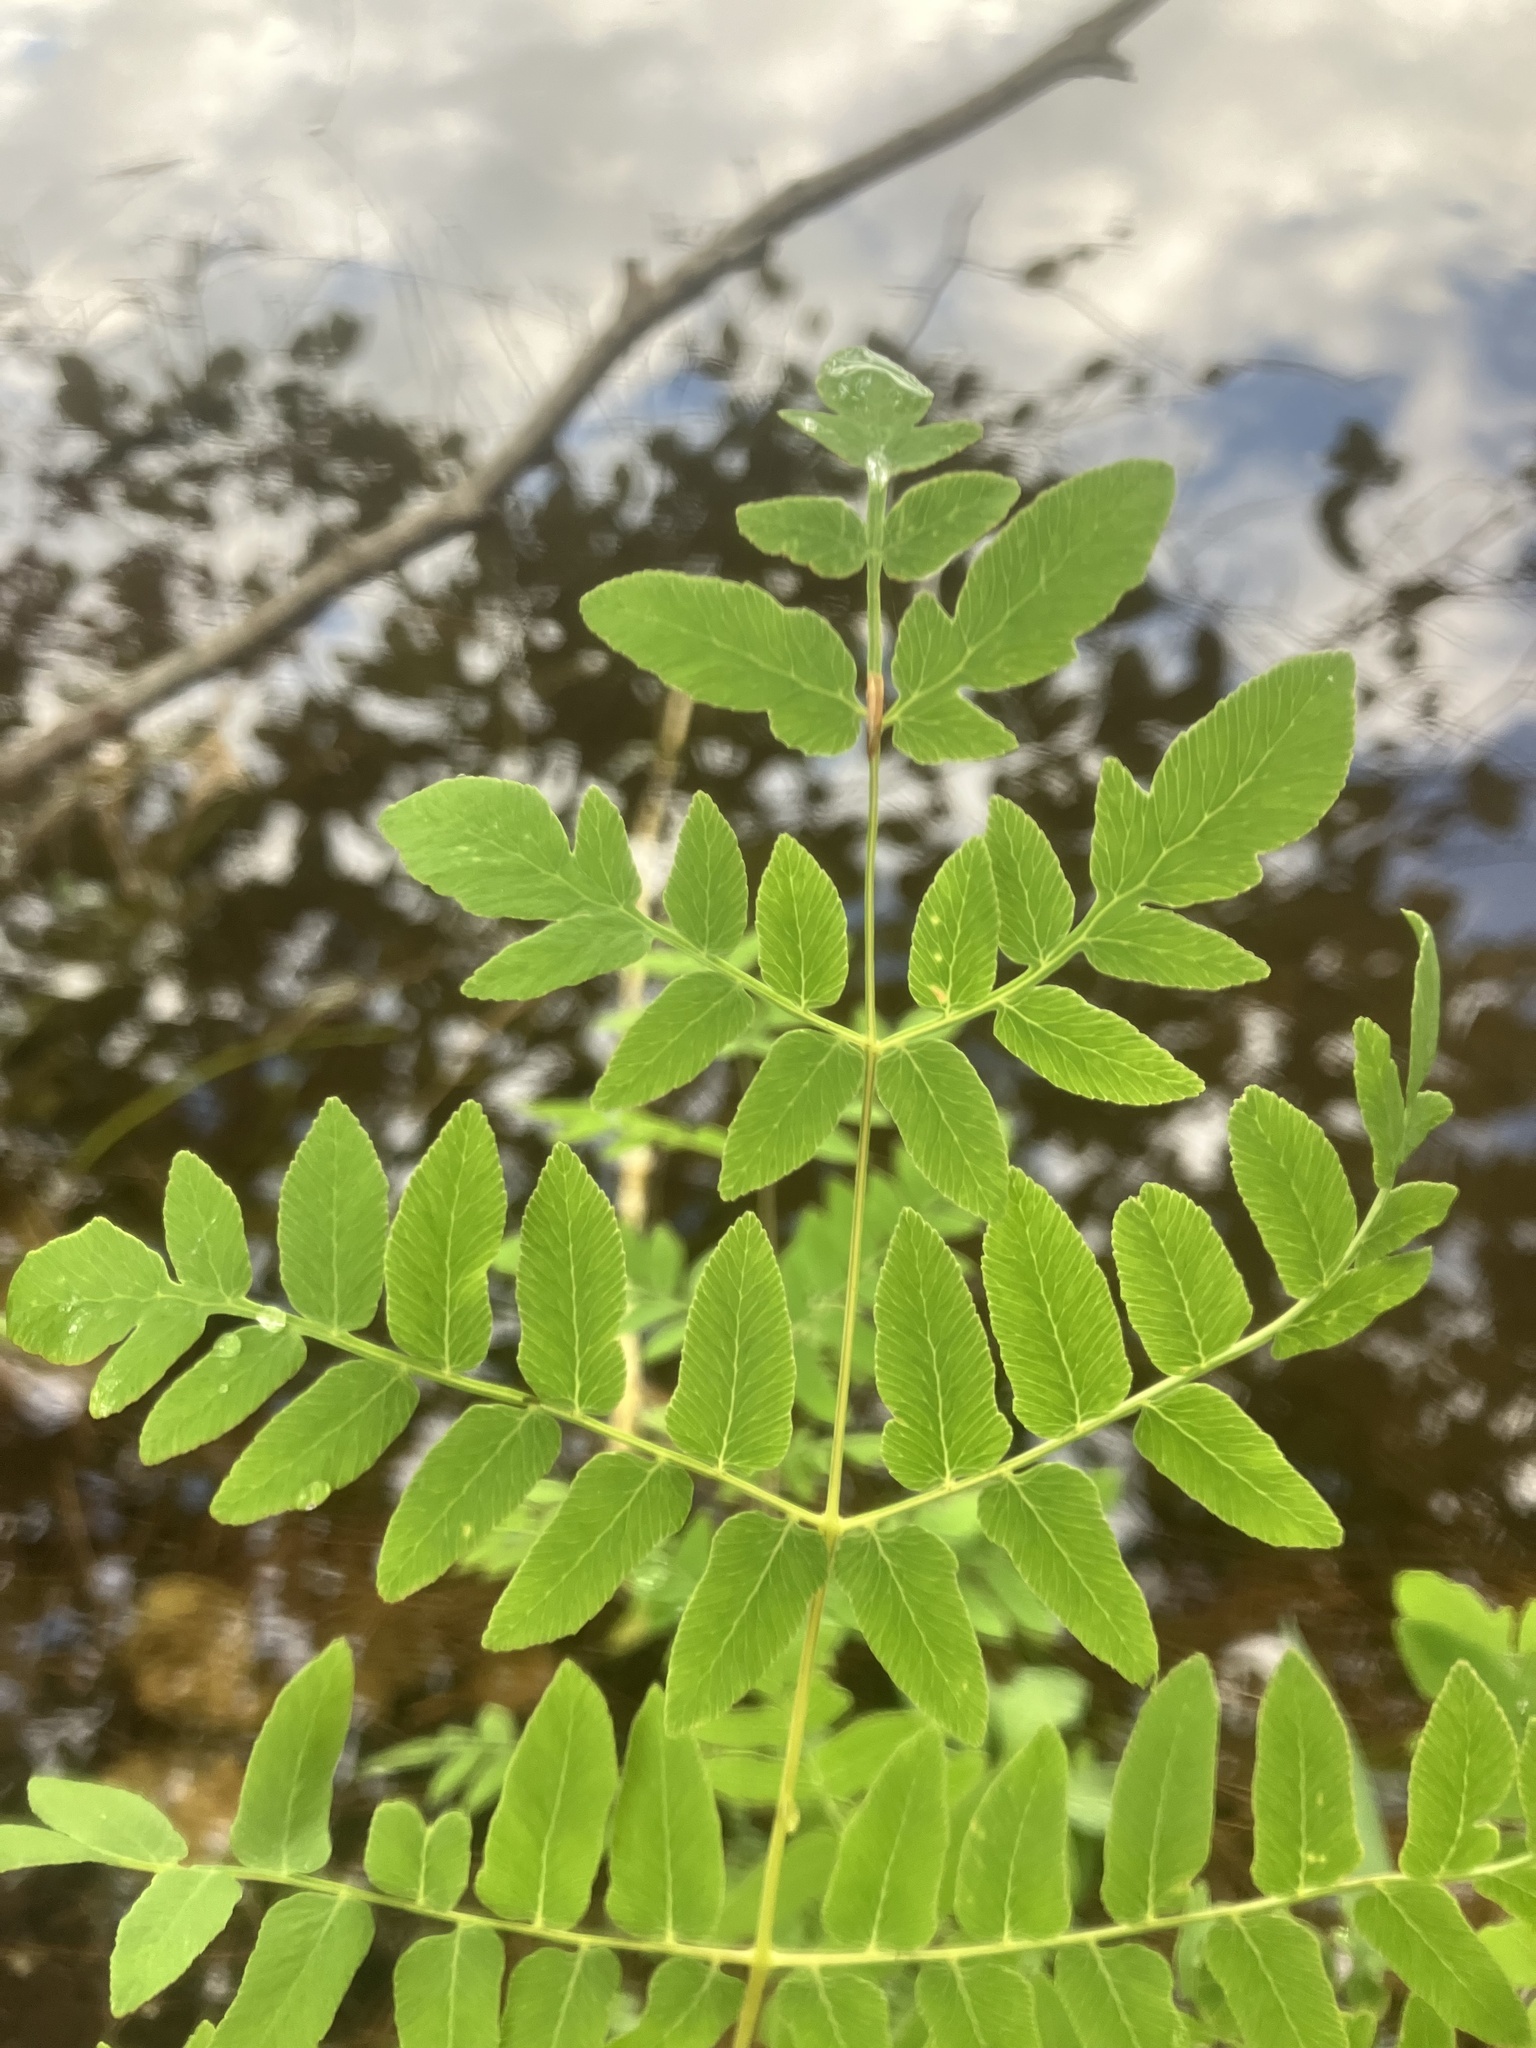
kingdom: Plantae
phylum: Tracheophyta
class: Polypodiopsida
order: Osmundales
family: Osmundaceae
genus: Osmunda
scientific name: Osmunda spectabilis
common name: American royal fern
